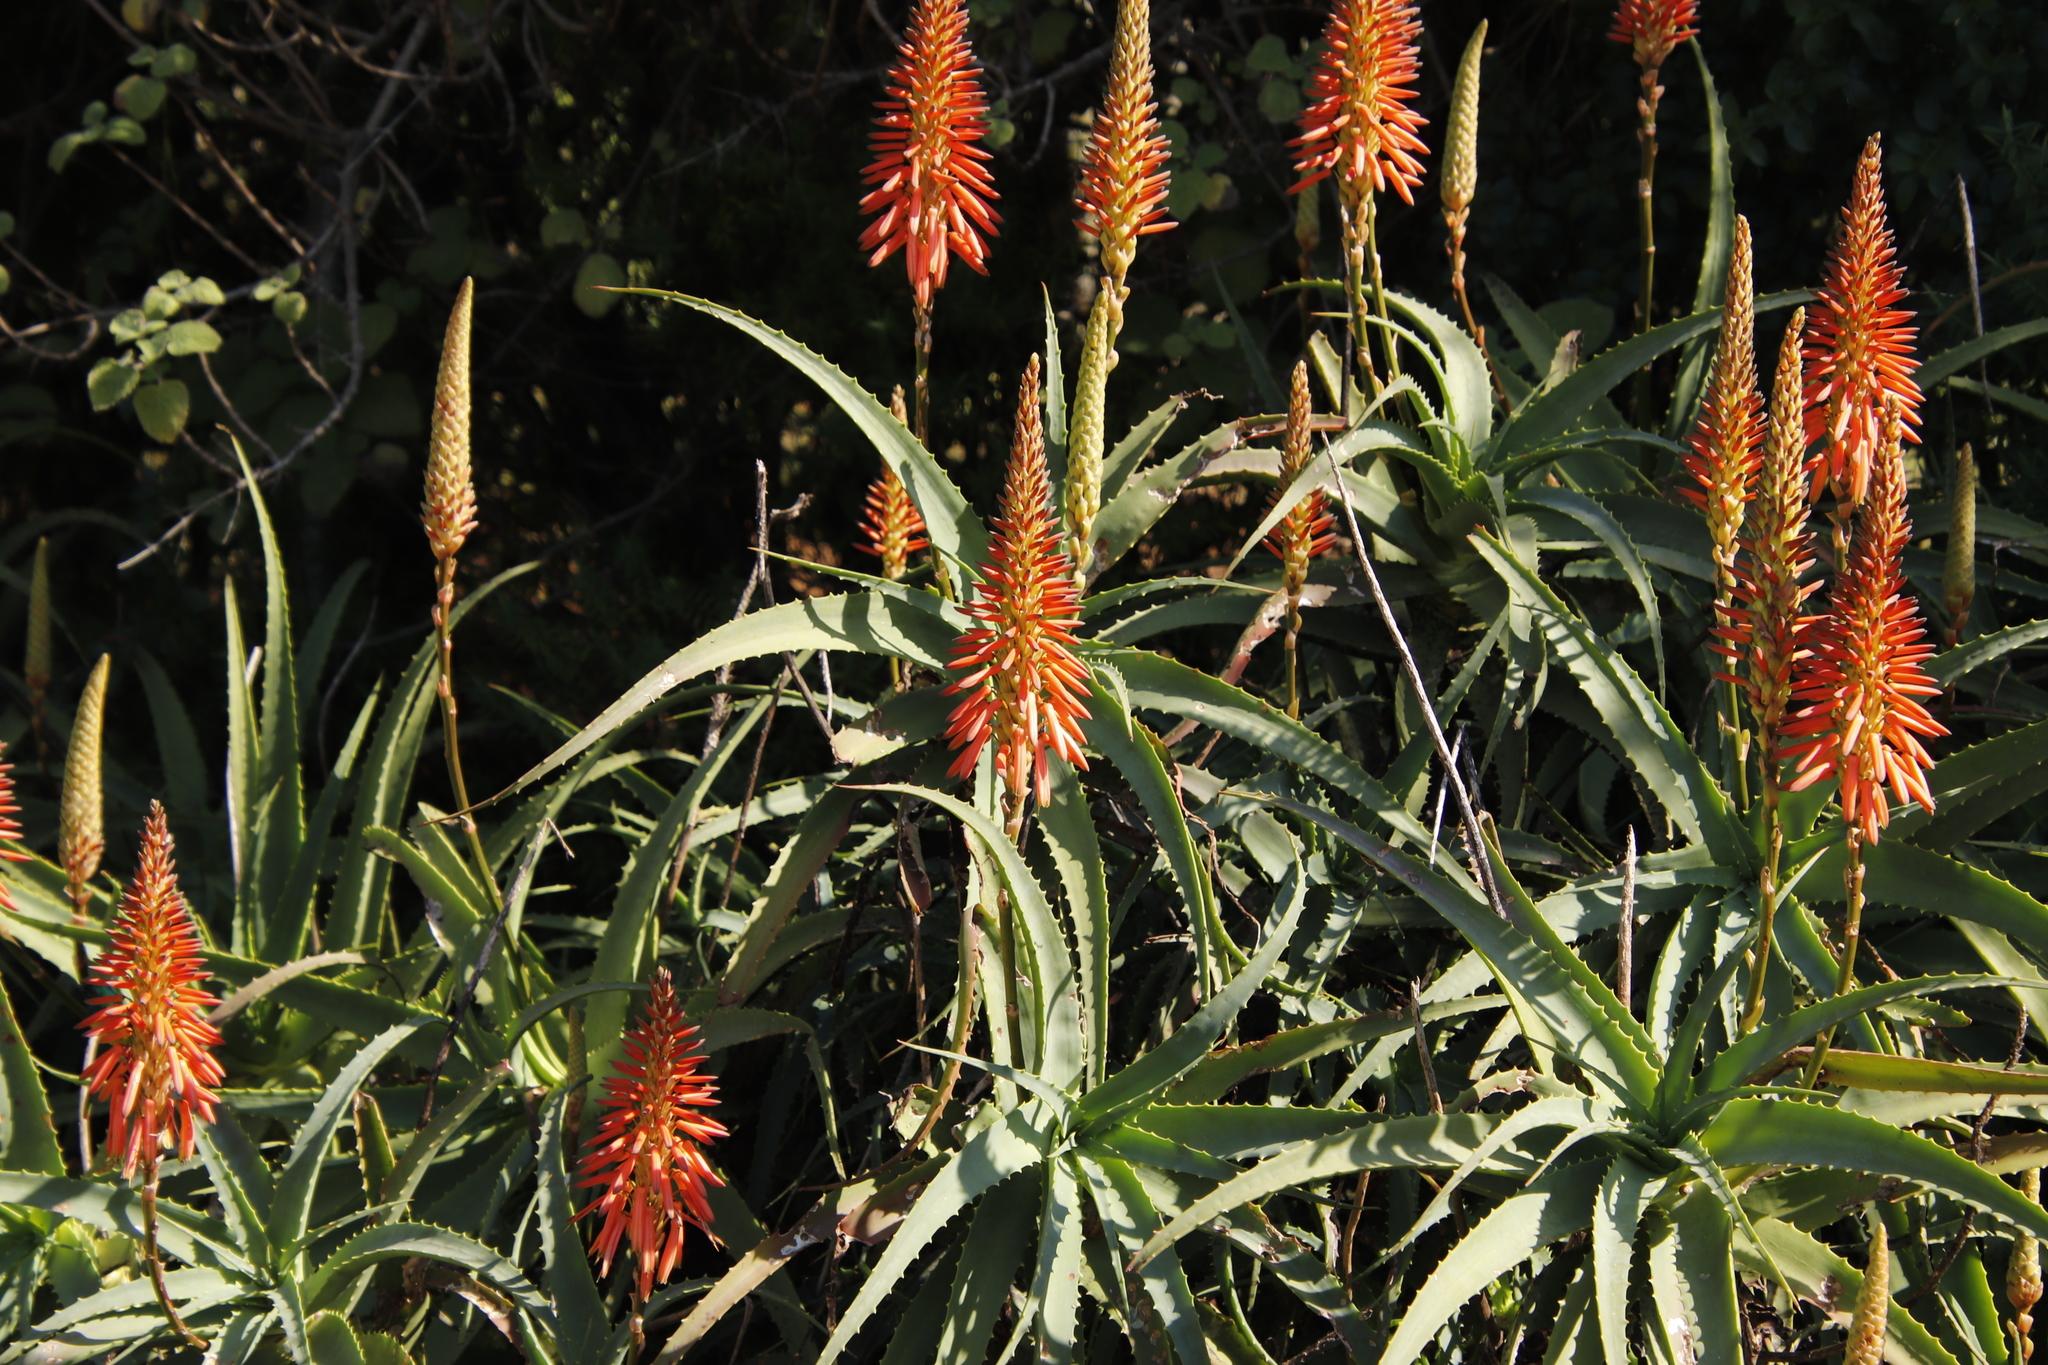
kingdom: Plantae
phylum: Tracheophyta
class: Liliopsida
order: Asparagales
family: Asphodelaceae
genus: Aloe
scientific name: Aloe arborescens
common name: Candelabra aloe
